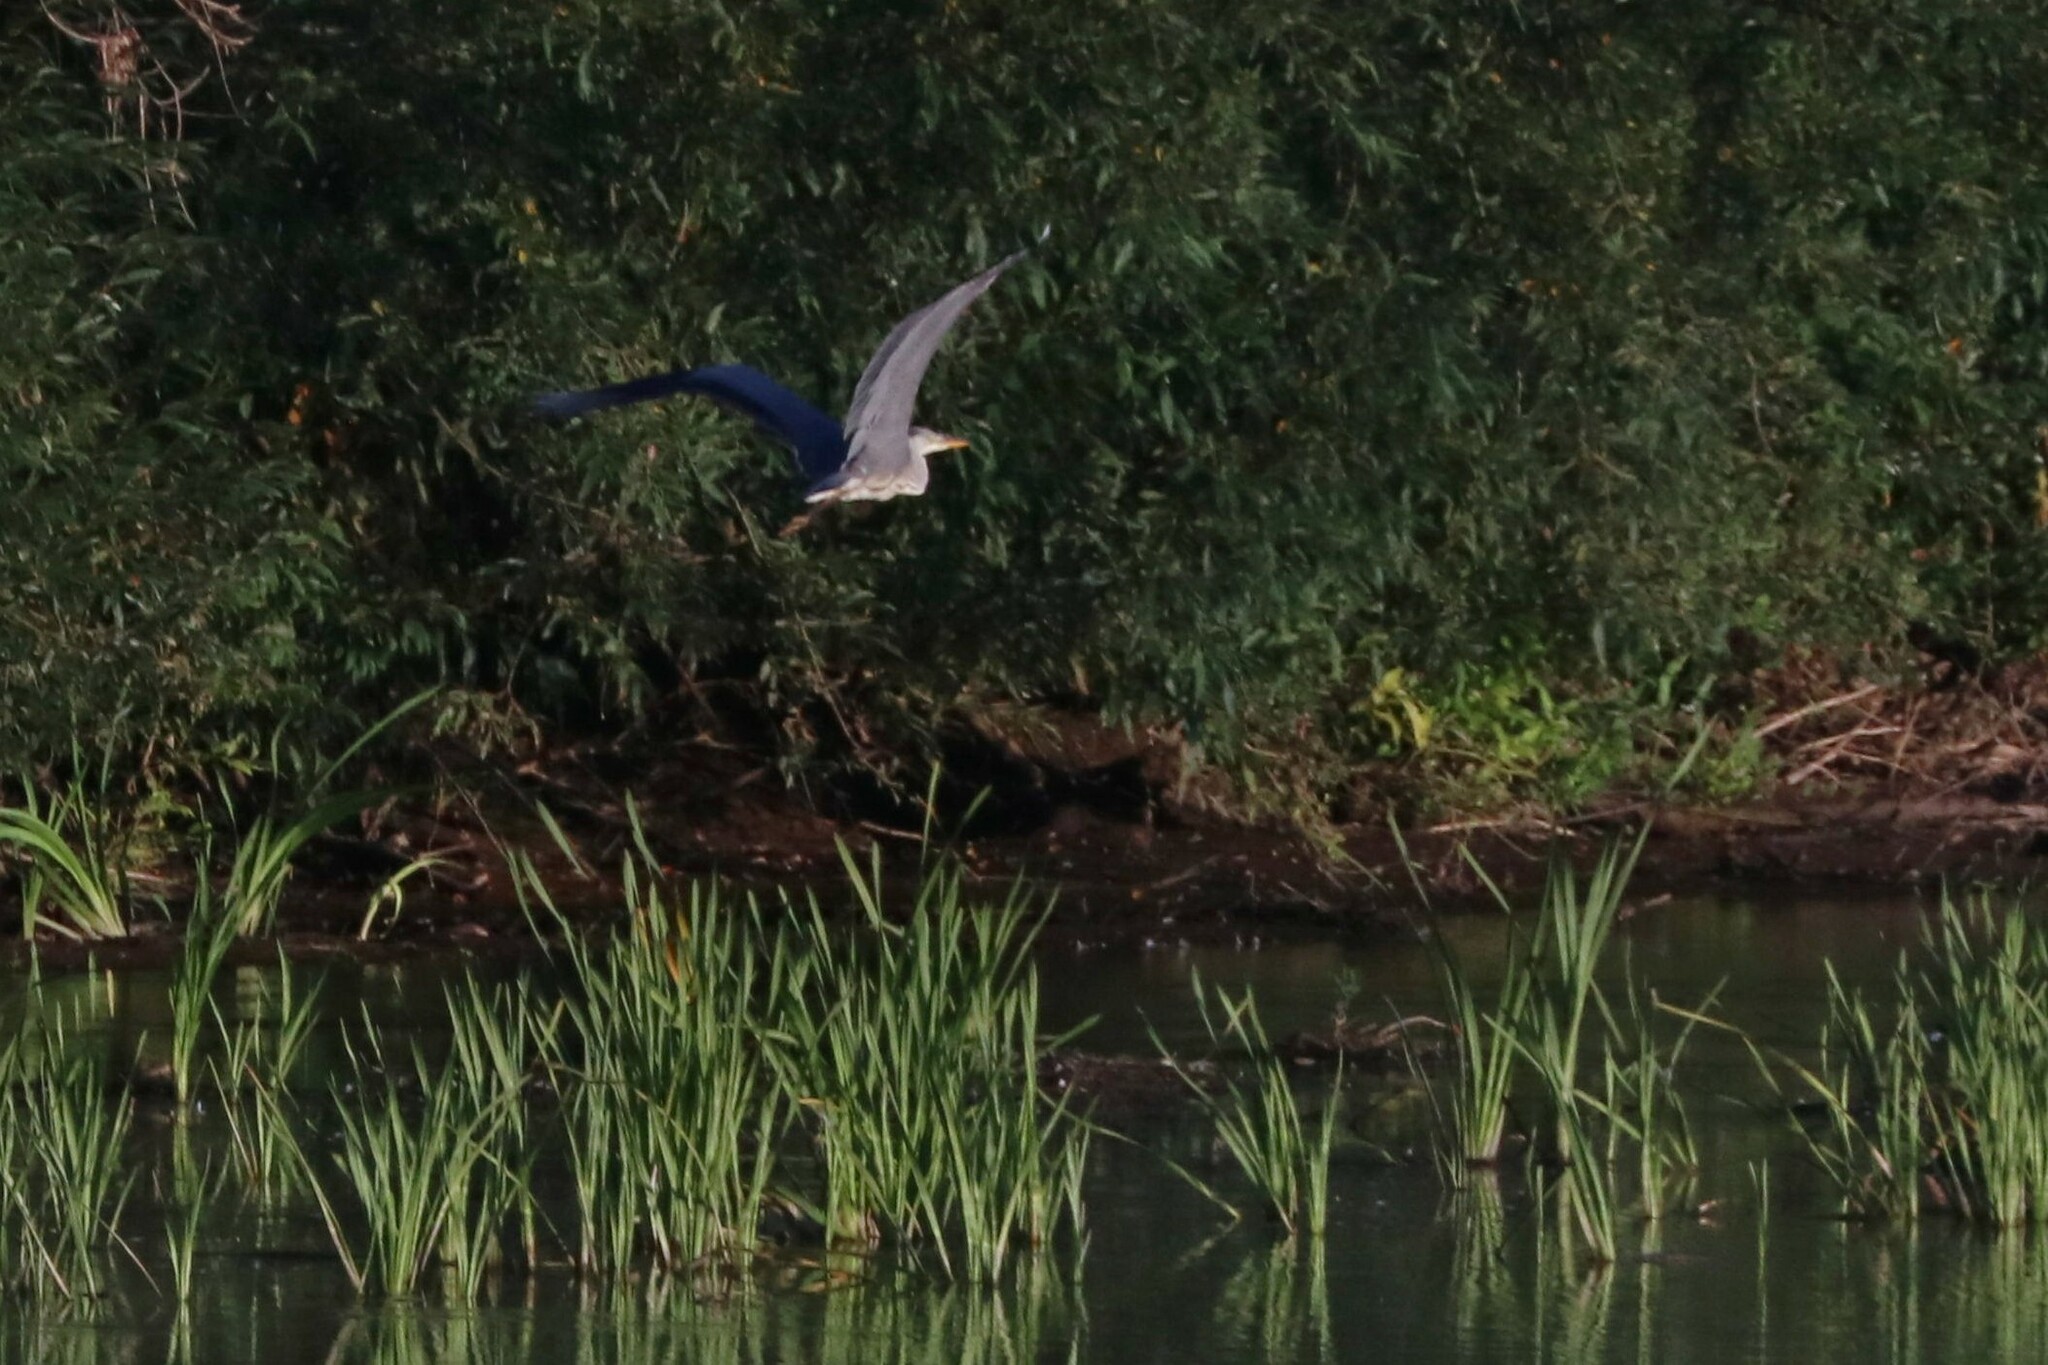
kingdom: Animalia
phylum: Chordata
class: Aves
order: Pelecaniformes
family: Ardeidae
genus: Ardea
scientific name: Ardea cinerea
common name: Grey heron
